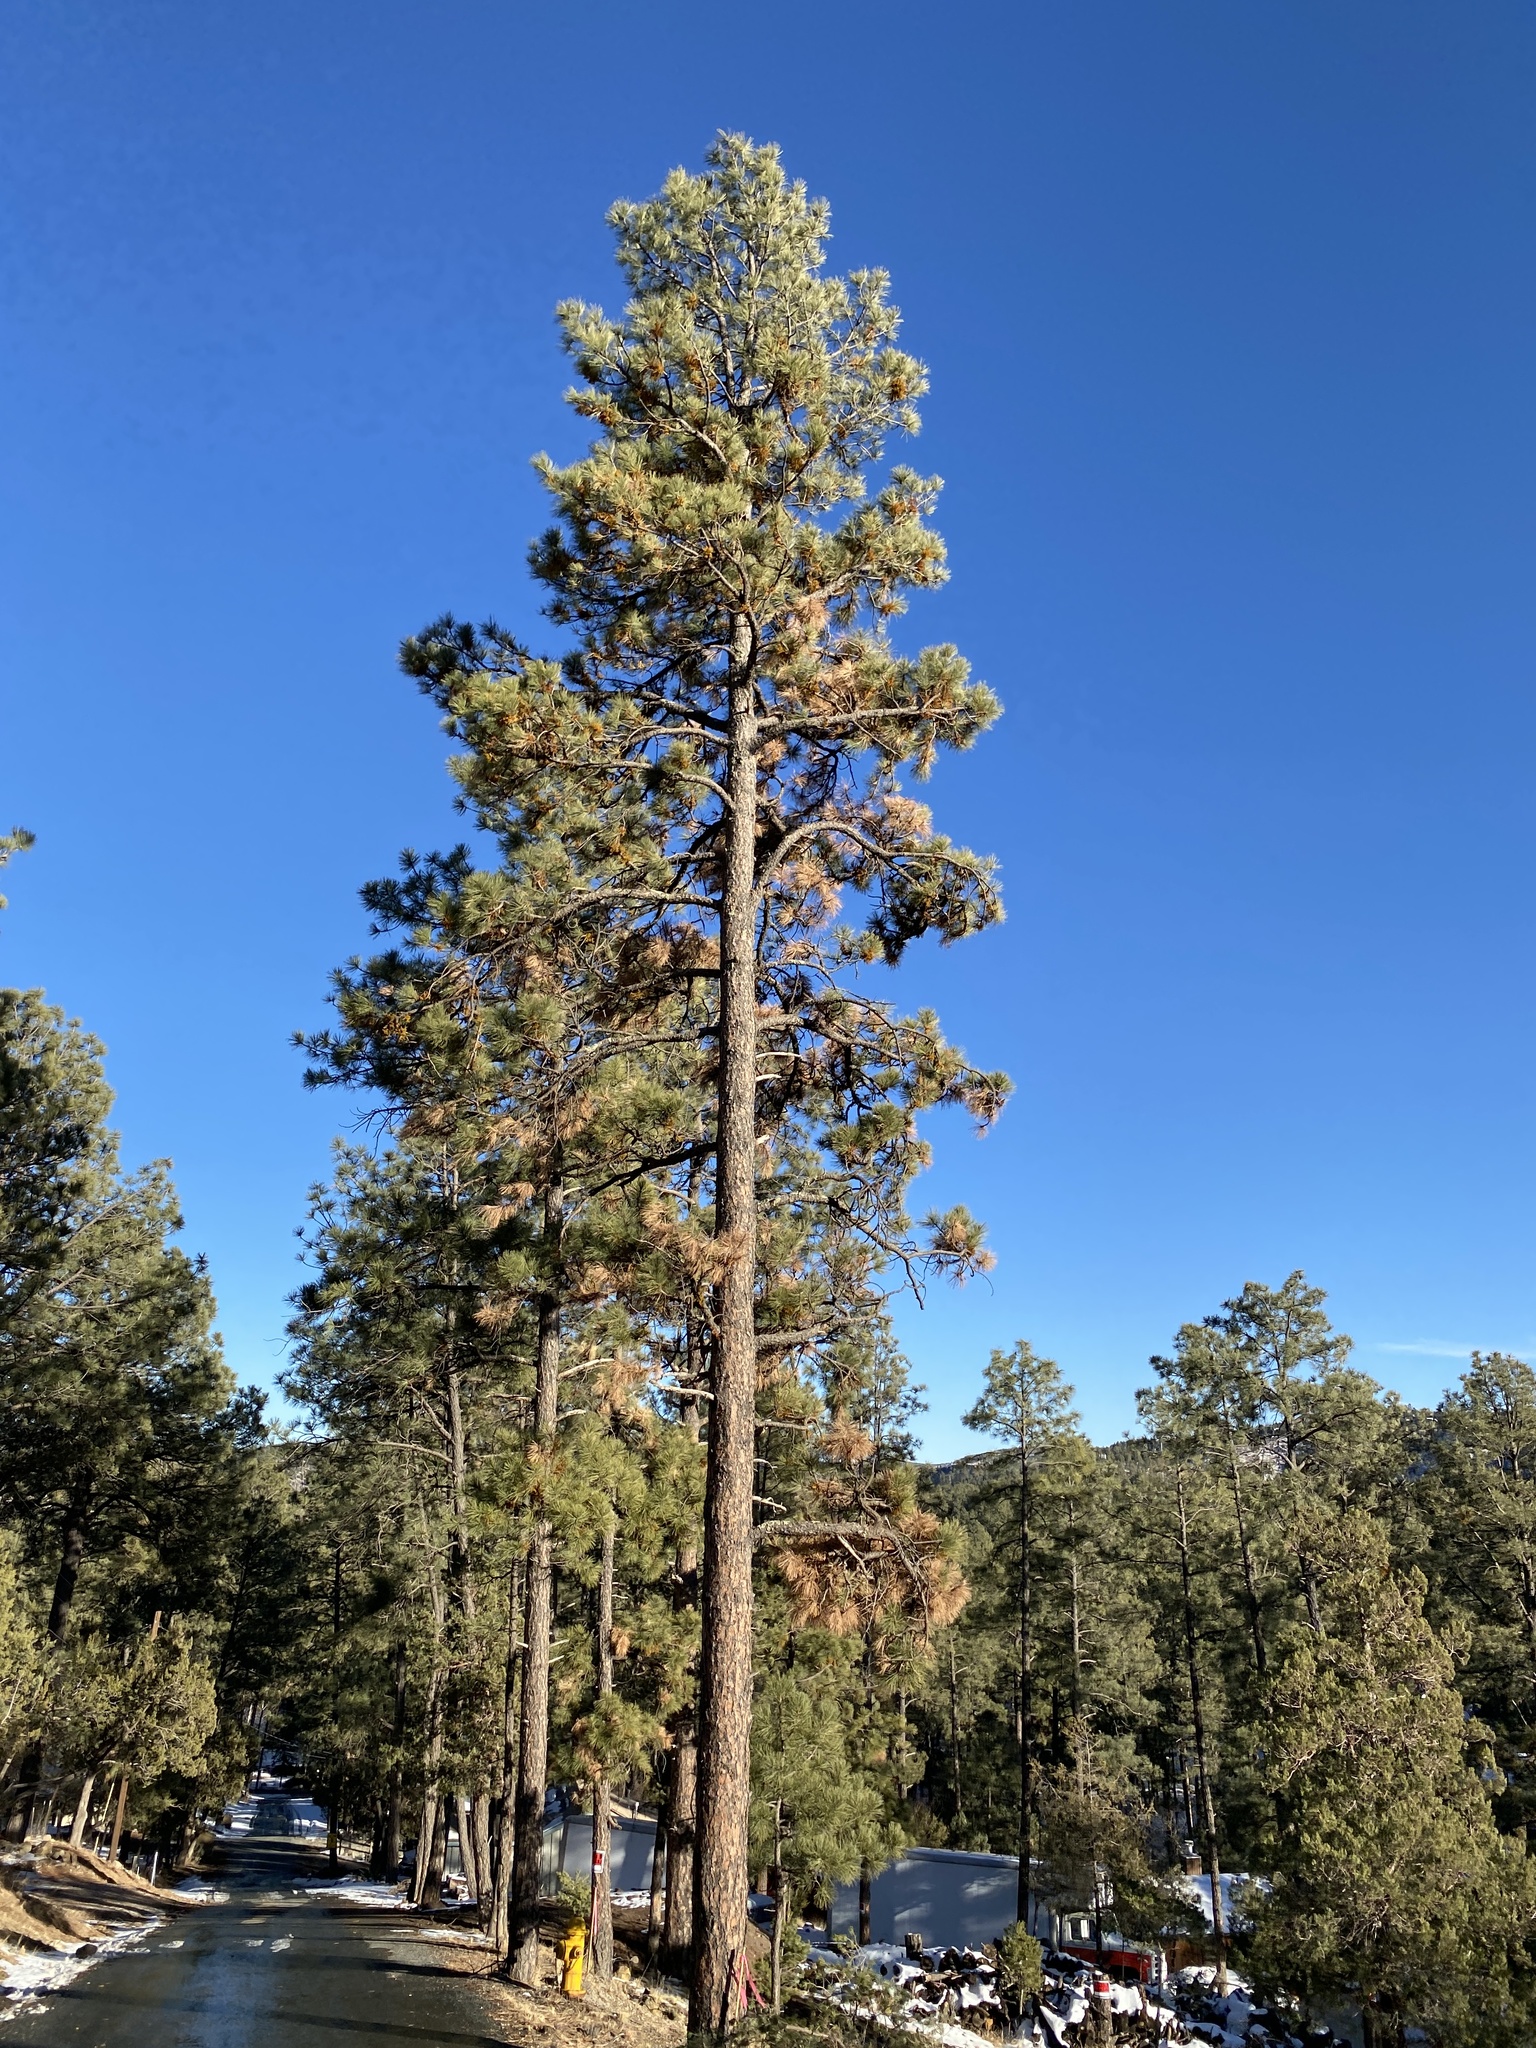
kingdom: Plantae
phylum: Tracheophyta
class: Pinopsida
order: Pinales
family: Pinaceae
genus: Pinus
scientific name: Pinus ponderosa
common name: Western yellow-pine
